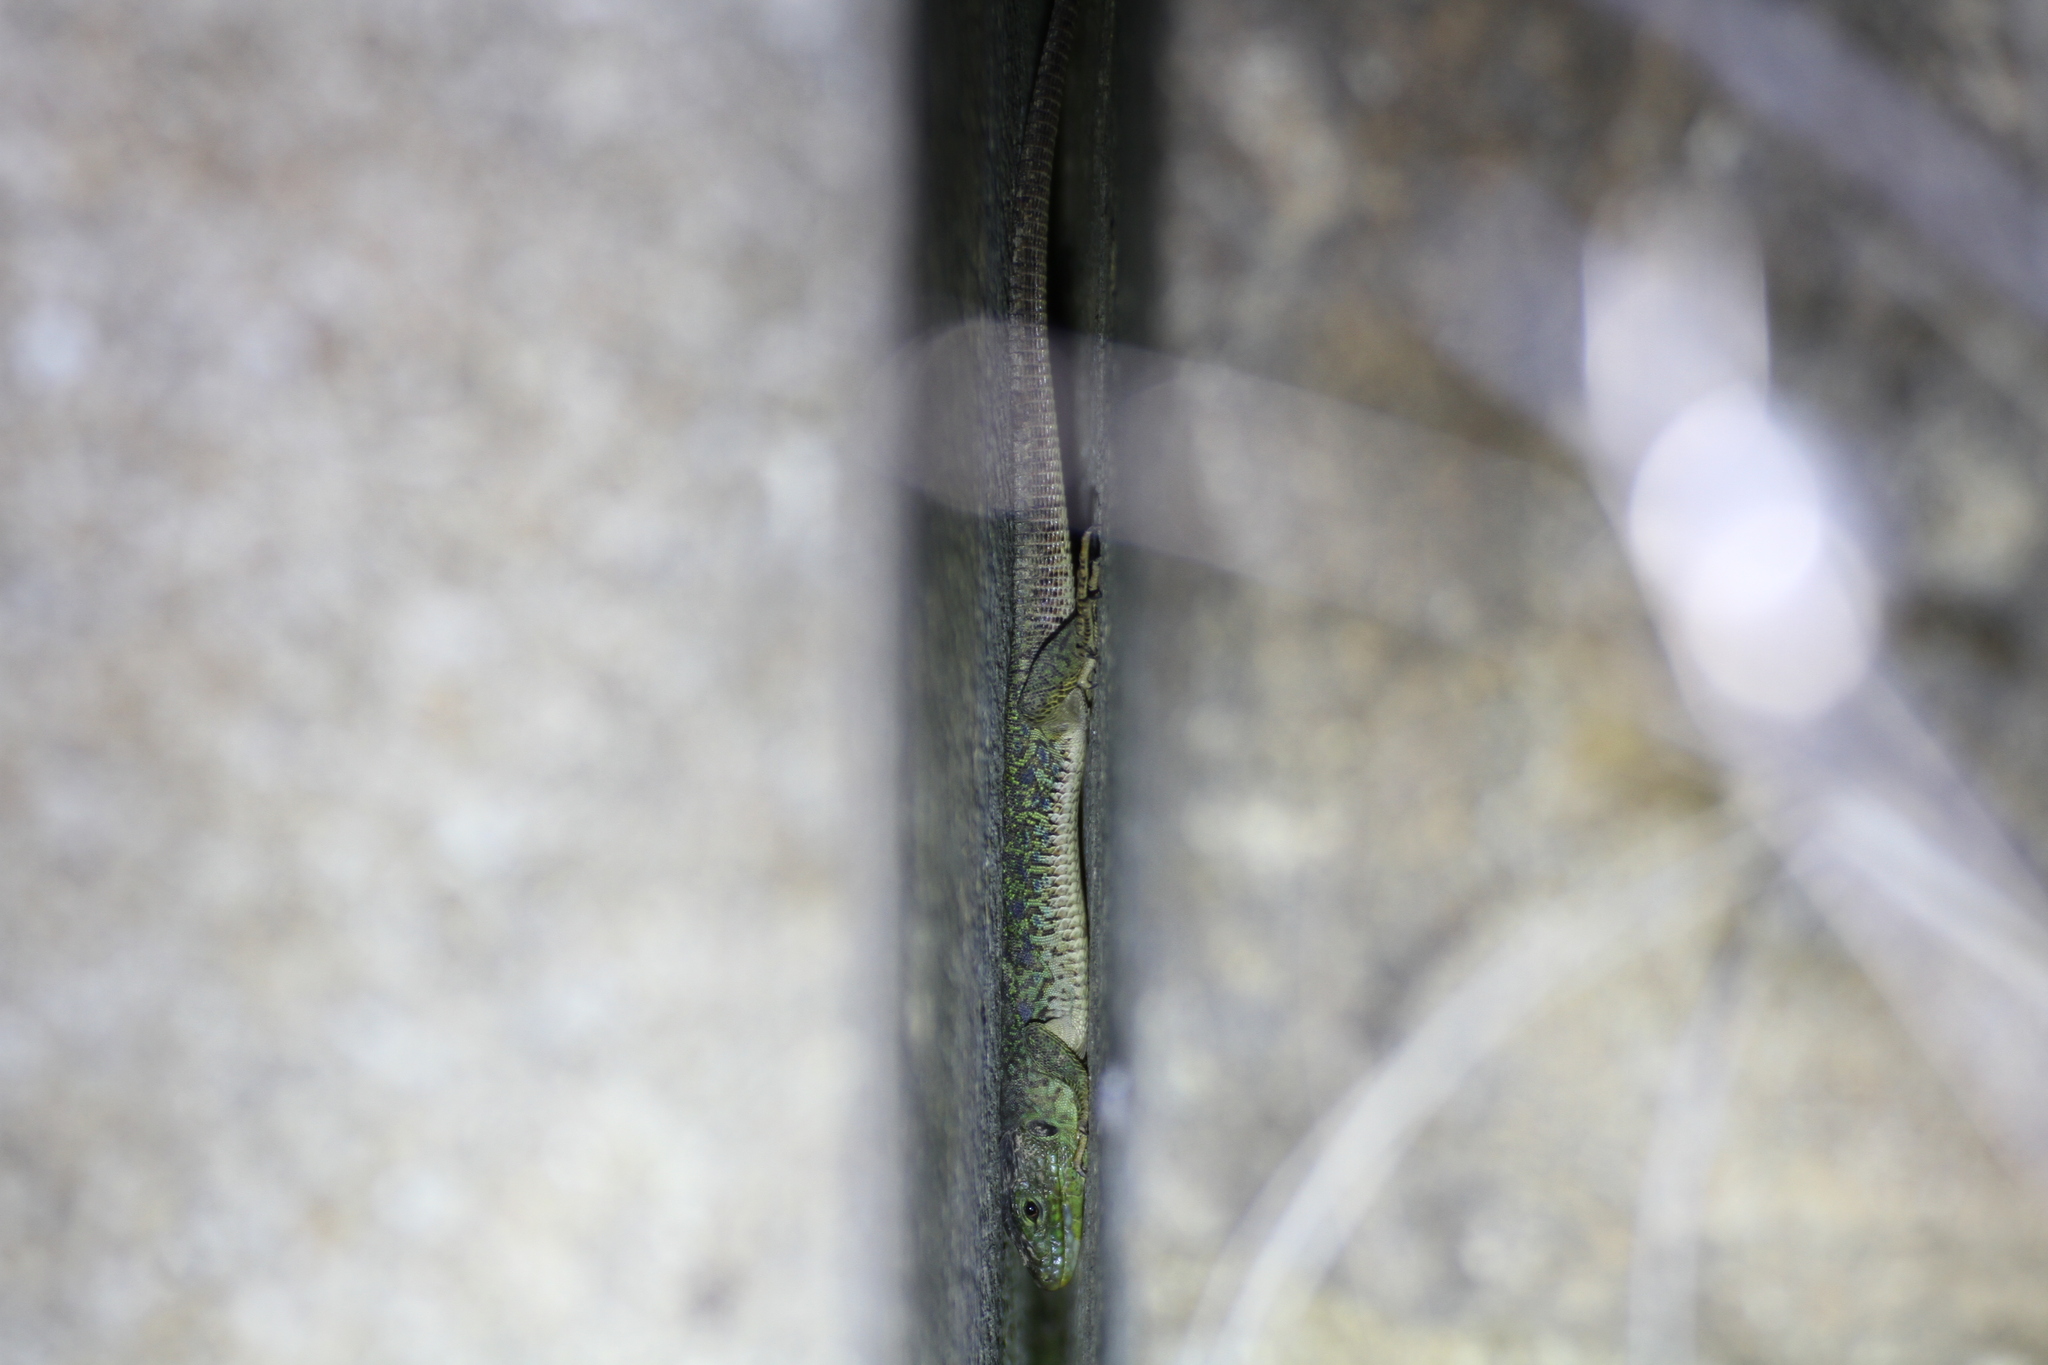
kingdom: Animalia
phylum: Chordata
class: Squamata
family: Lacertidae
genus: Timon
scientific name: Timon lepidus
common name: Ocellated lizard
